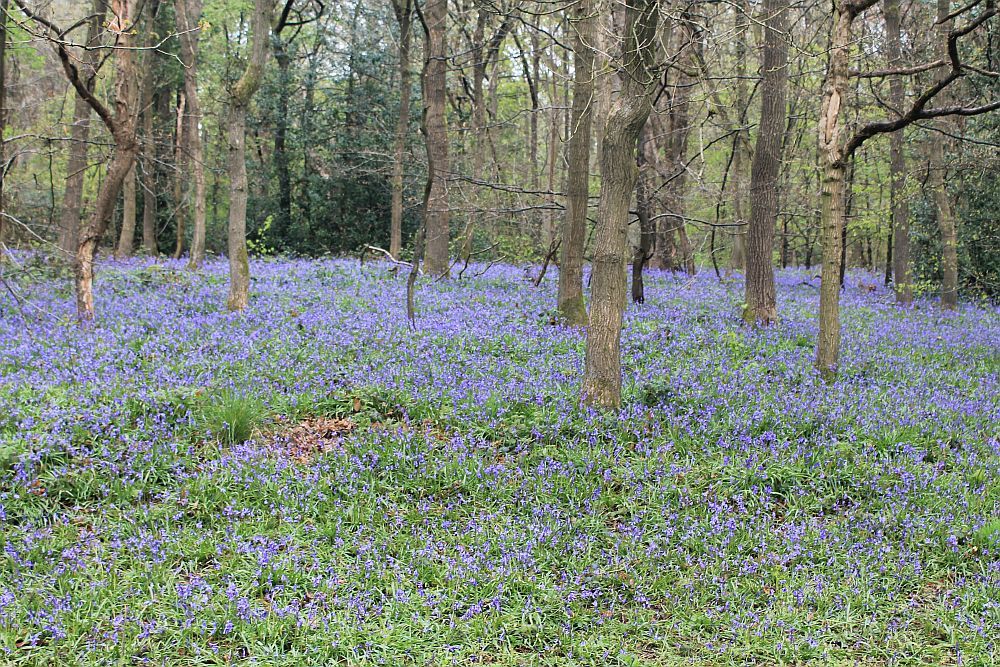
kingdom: Plantae
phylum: Tracheophyta
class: Liliopsida
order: Asparagales
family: Asparagaceae
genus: Hyacinthoides
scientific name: Hyacinthoides non-scripta
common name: Bluebell
